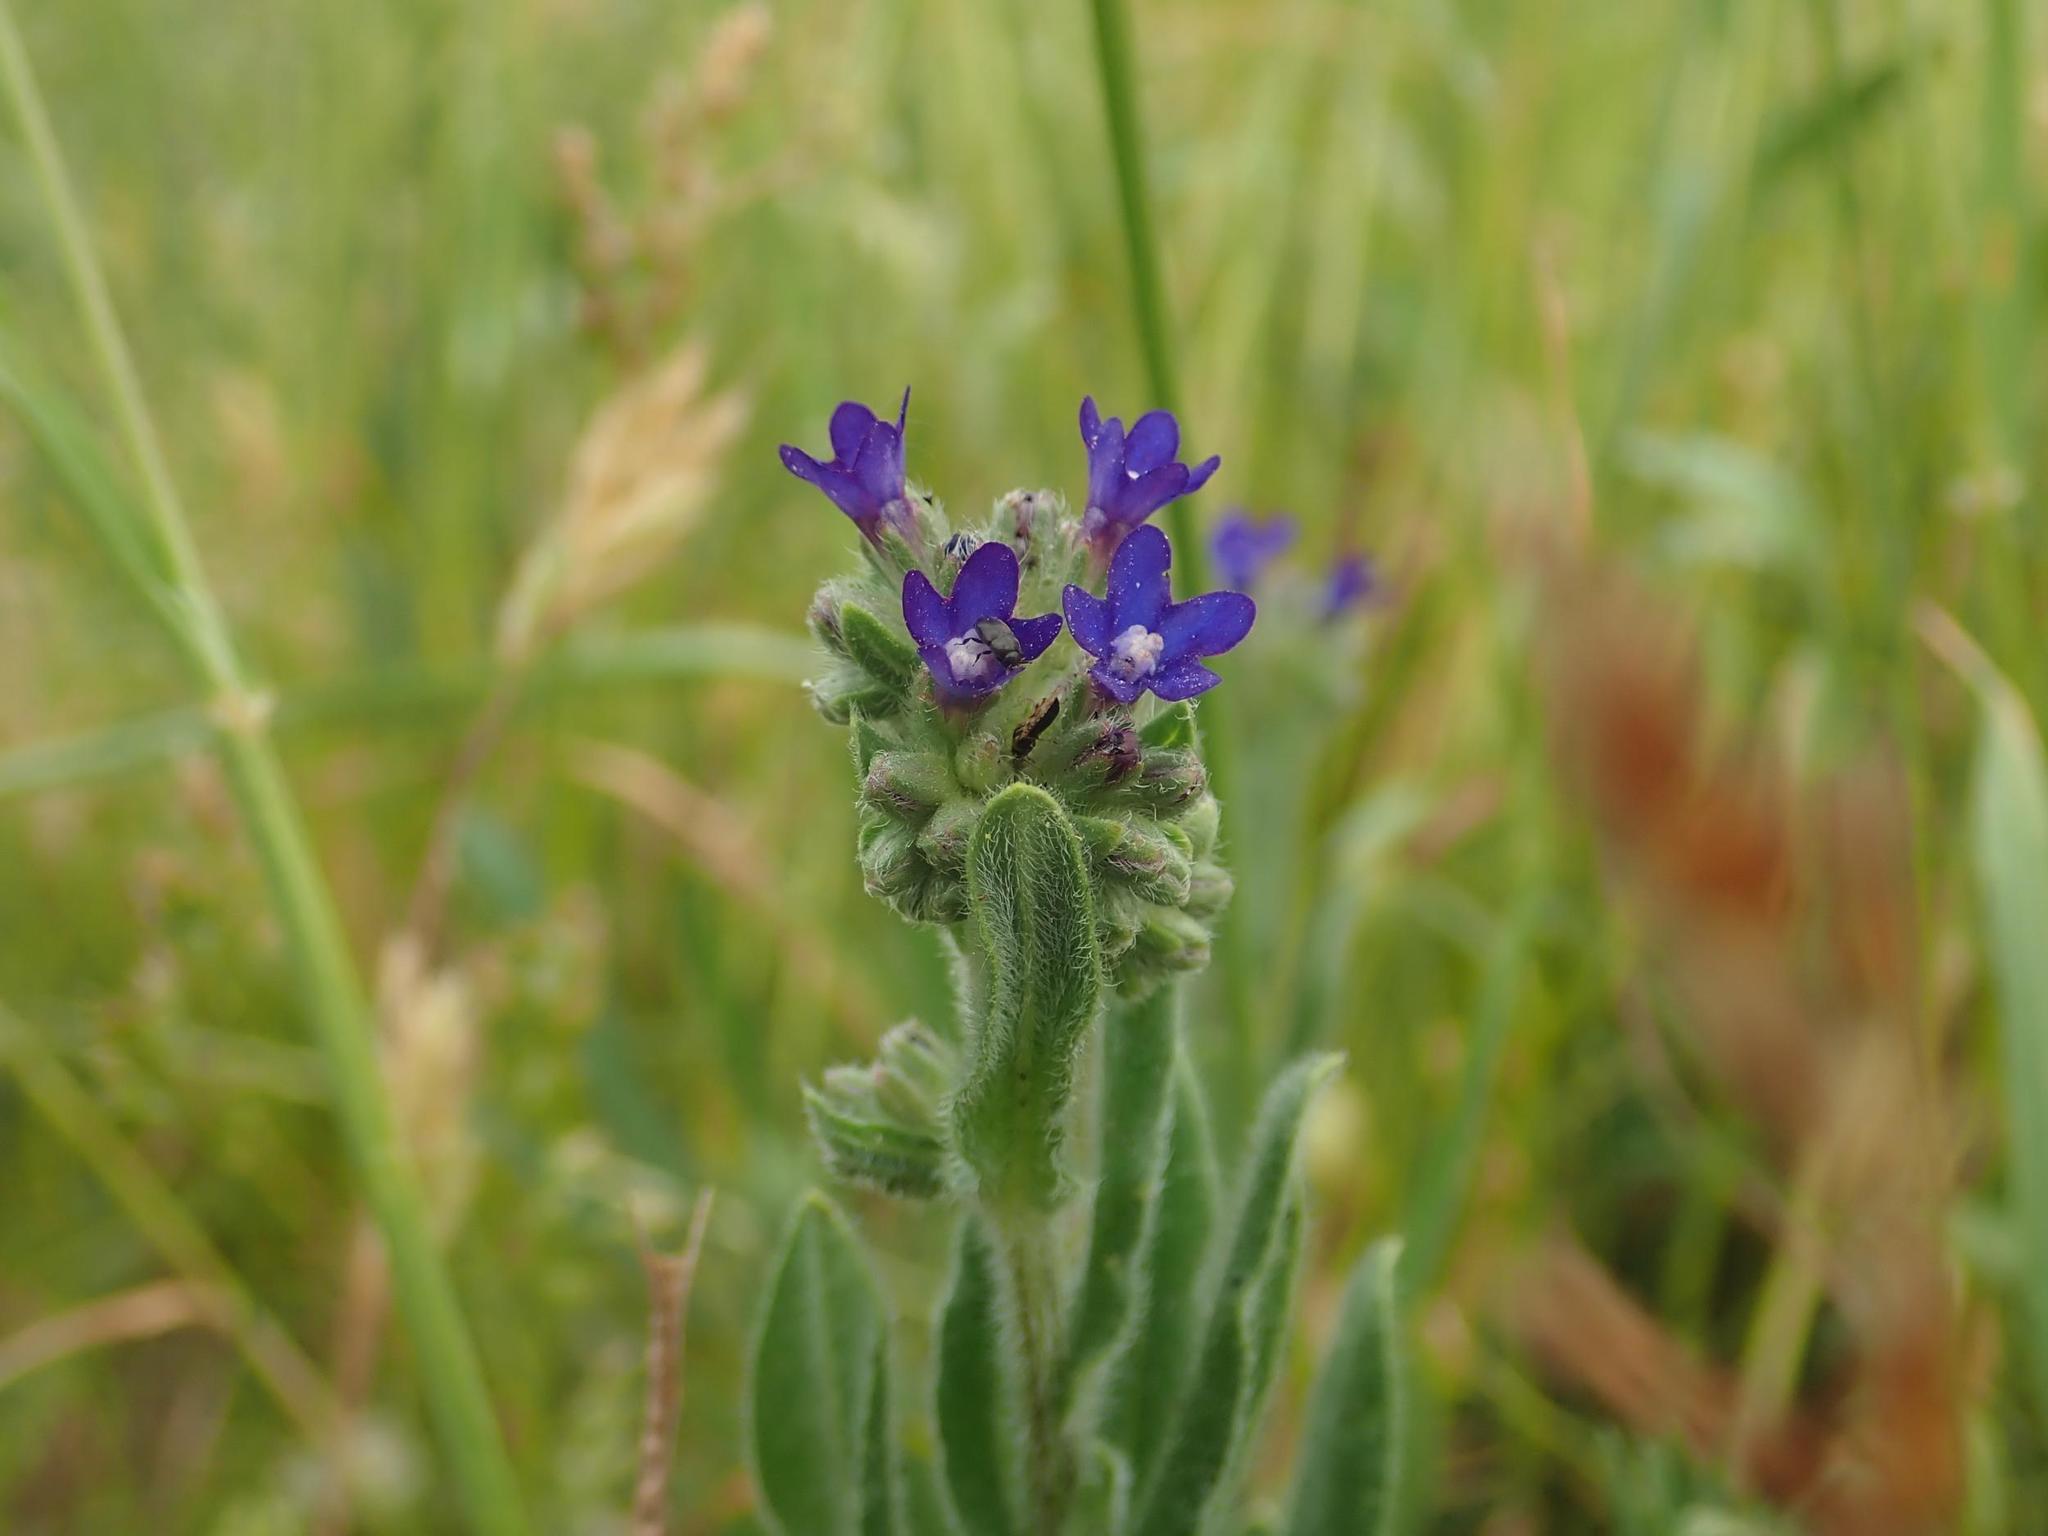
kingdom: Plantae
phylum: Tracheophyta
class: Magnoliopsida
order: Boraginales
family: Boraginaceae
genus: Anchusa
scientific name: Anchusa officinalis
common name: Alkanet
